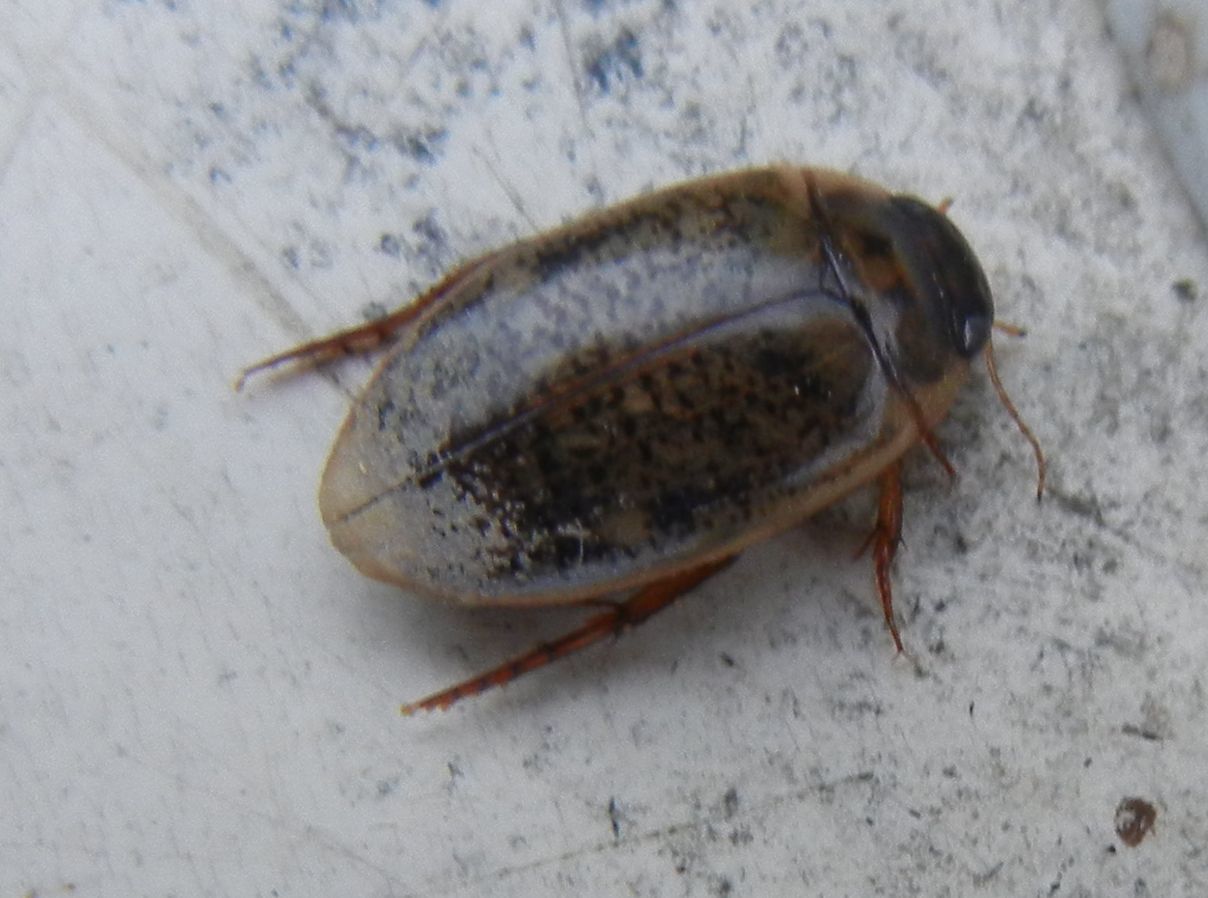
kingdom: Animalia
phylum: Arthropoda
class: Insecta
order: Coleoptera
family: Dytiscidae
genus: Agabus
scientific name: Agabus nebulosus
